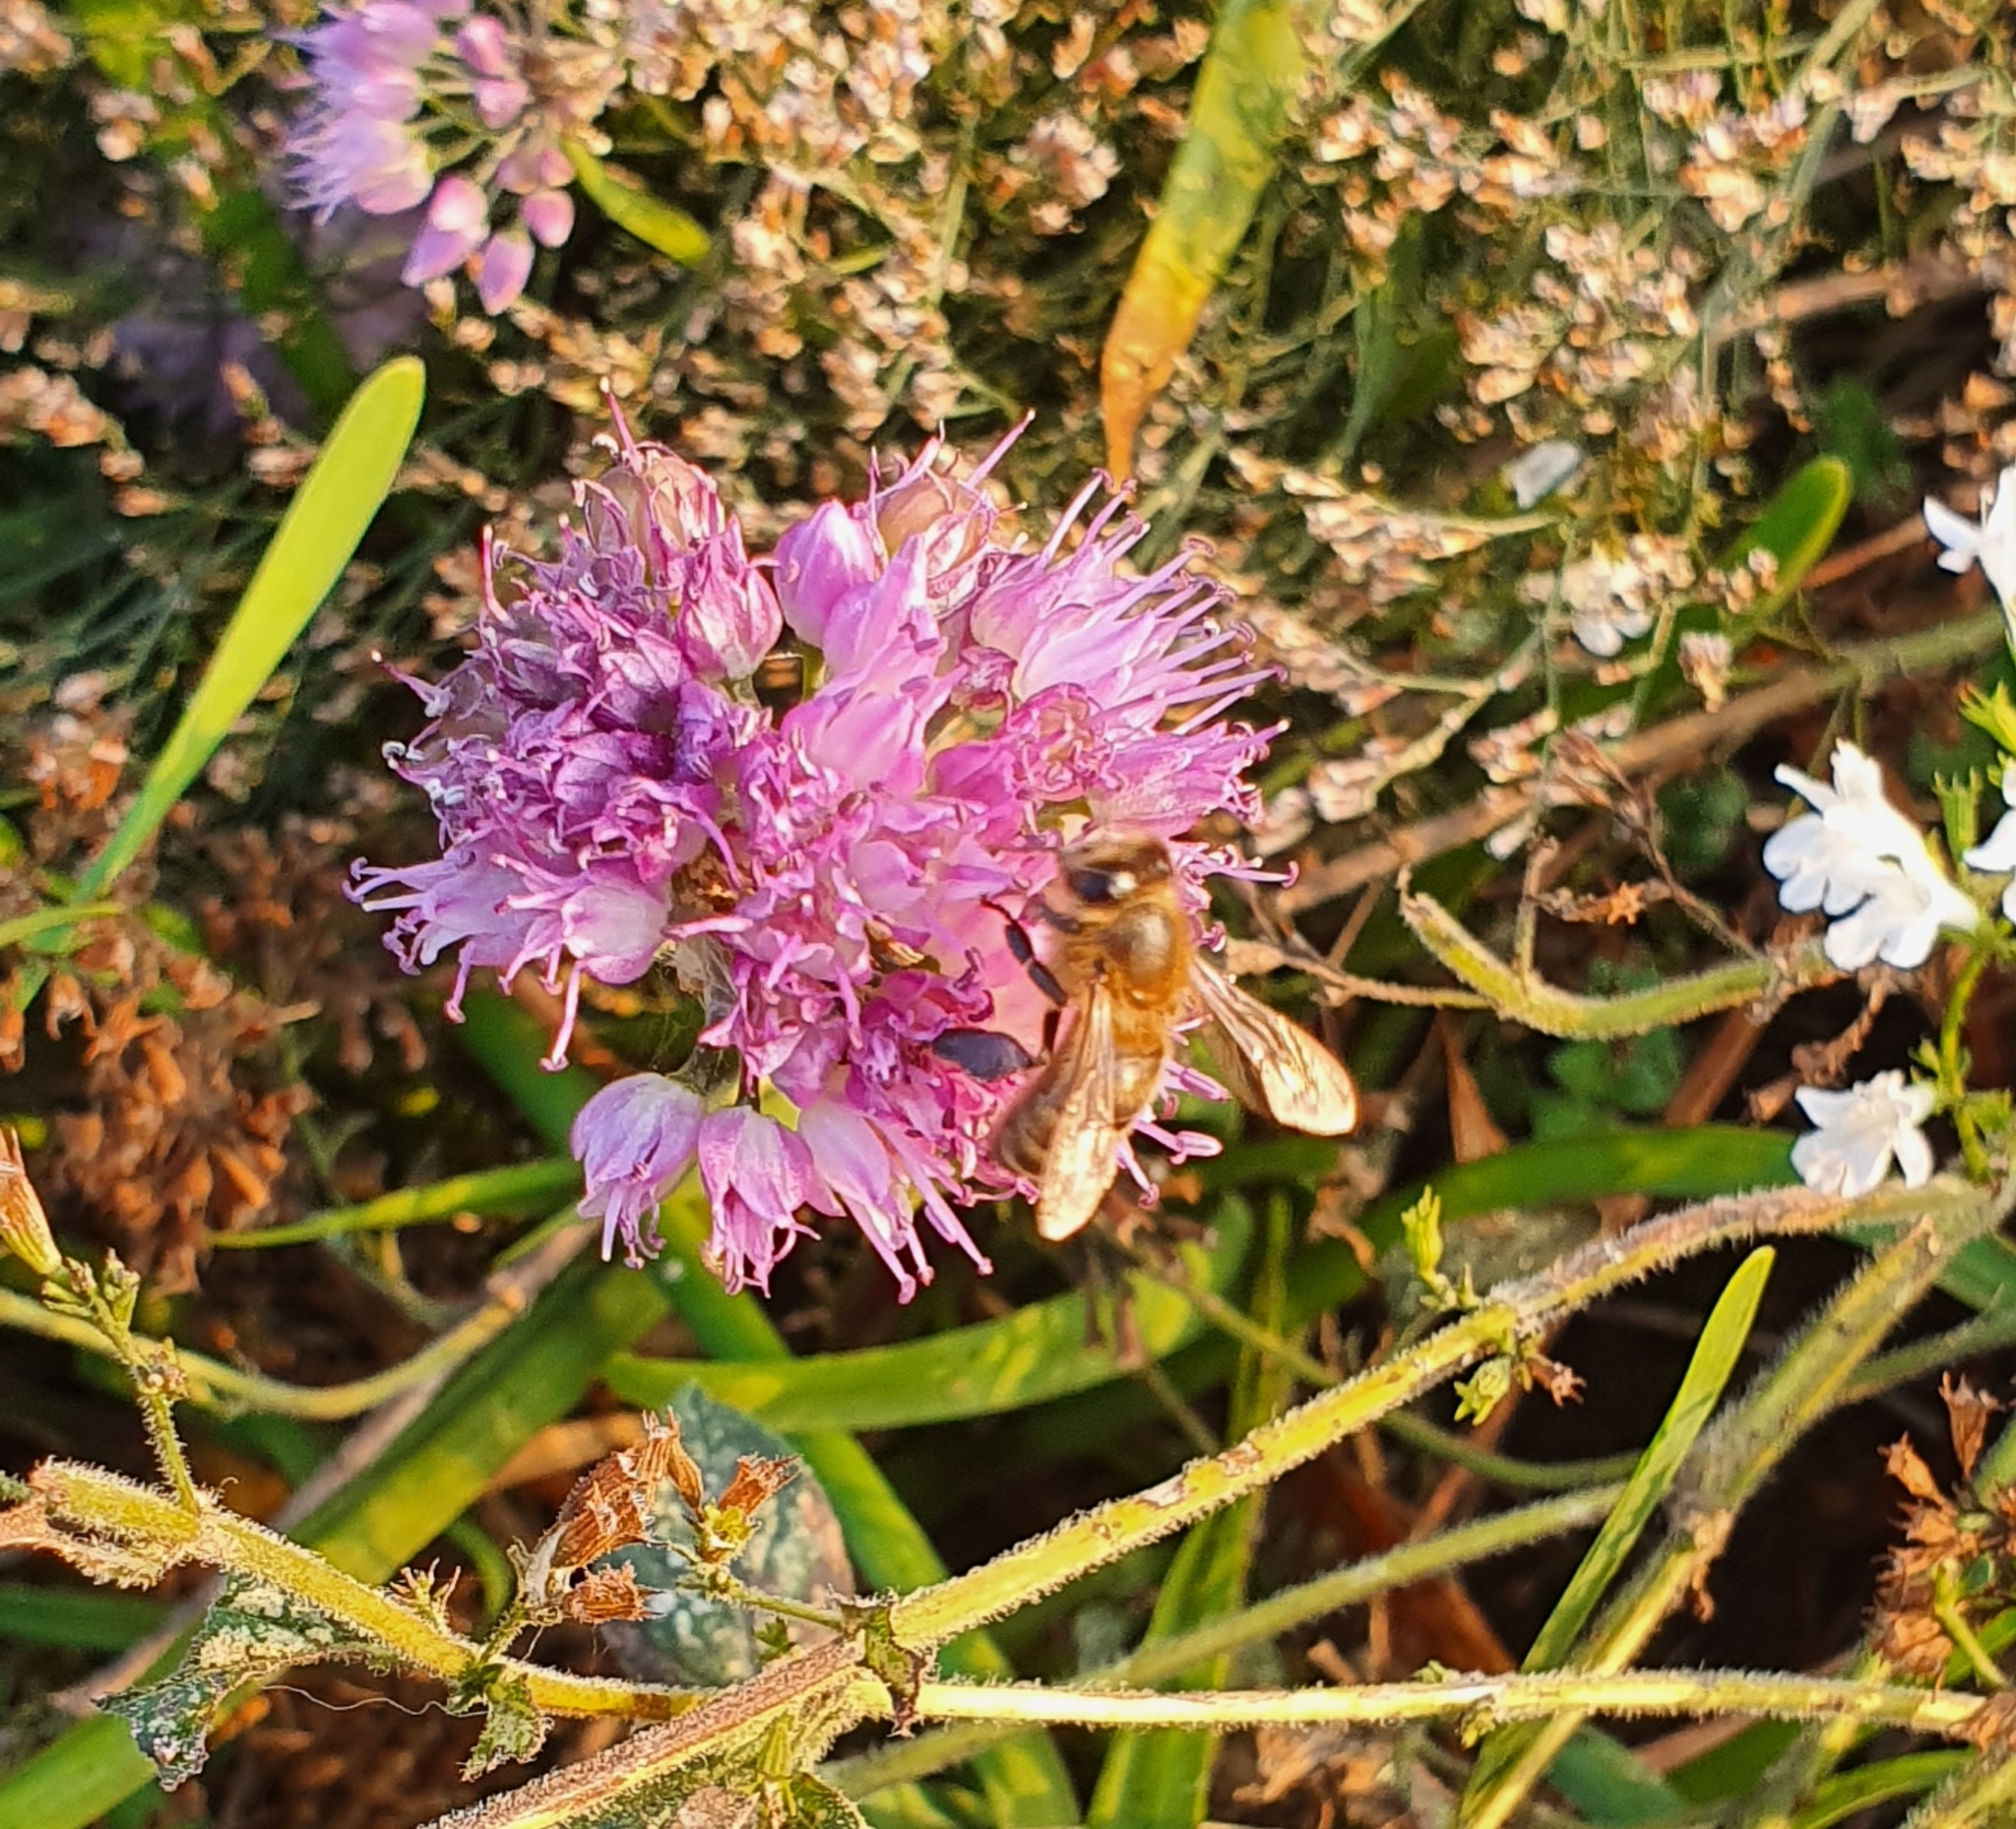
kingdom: Animalia
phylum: Arthropoda
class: Insecta
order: Hymenoptera
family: Apidae
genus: Apis
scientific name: Apis mellifera
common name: Honey bee
